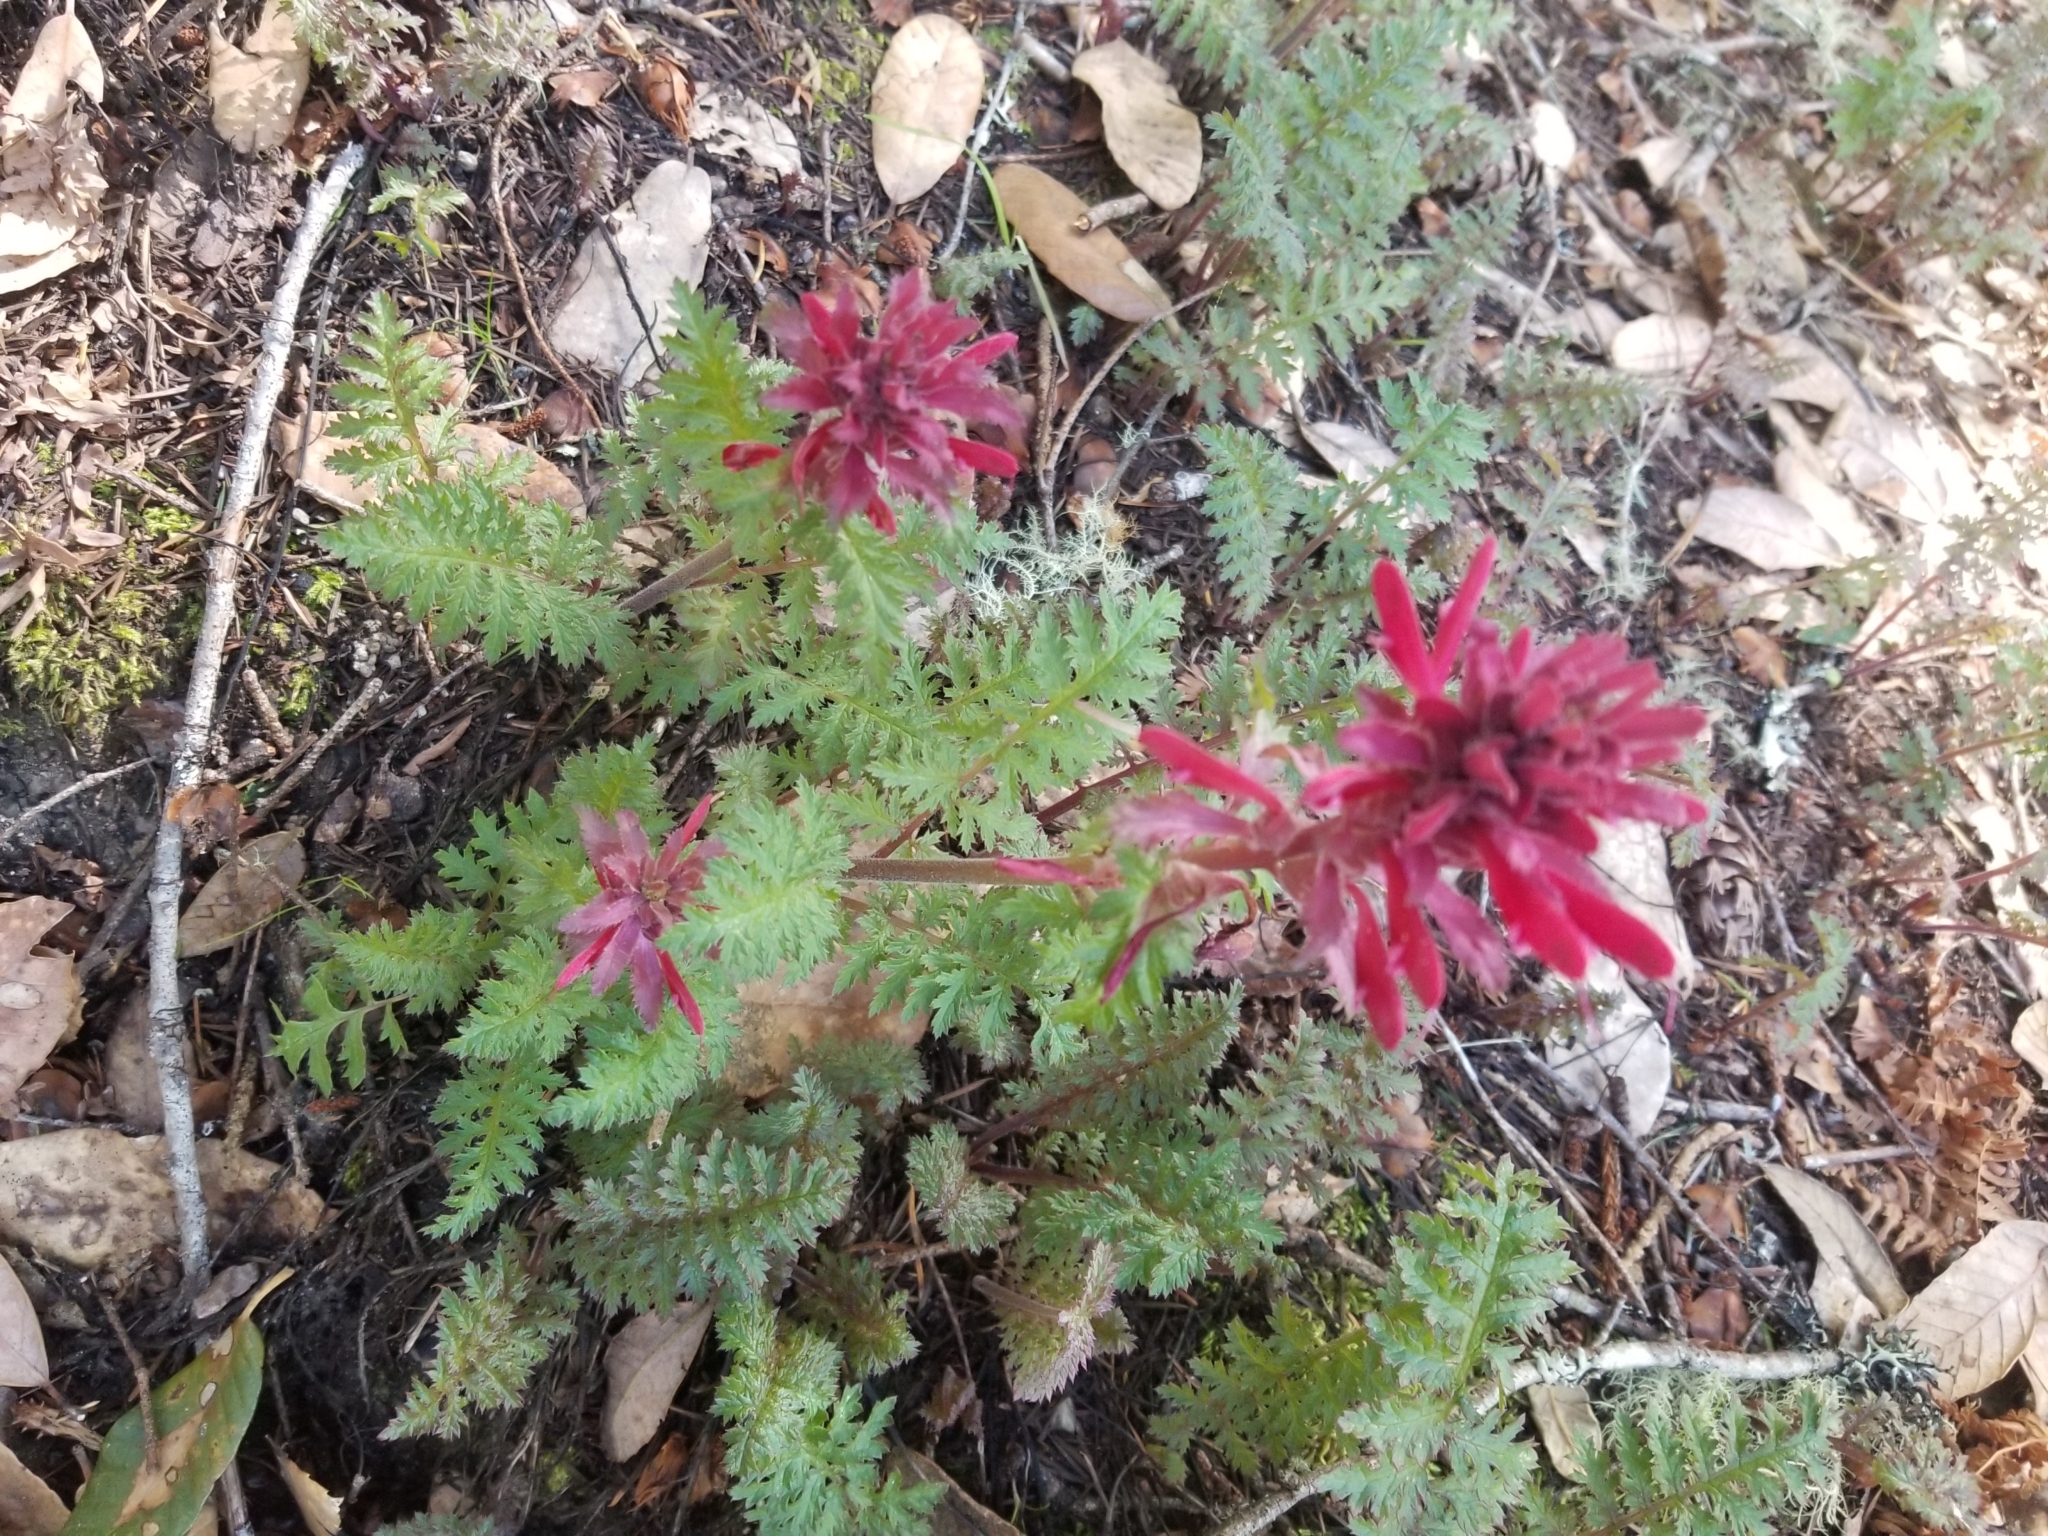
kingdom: Plantae
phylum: Tracheophyta
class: Magnoliopsida
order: Lamiales
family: Orobanchaceae
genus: Pedicularis
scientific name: Pedicularis densiflora
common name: Indian warrior
